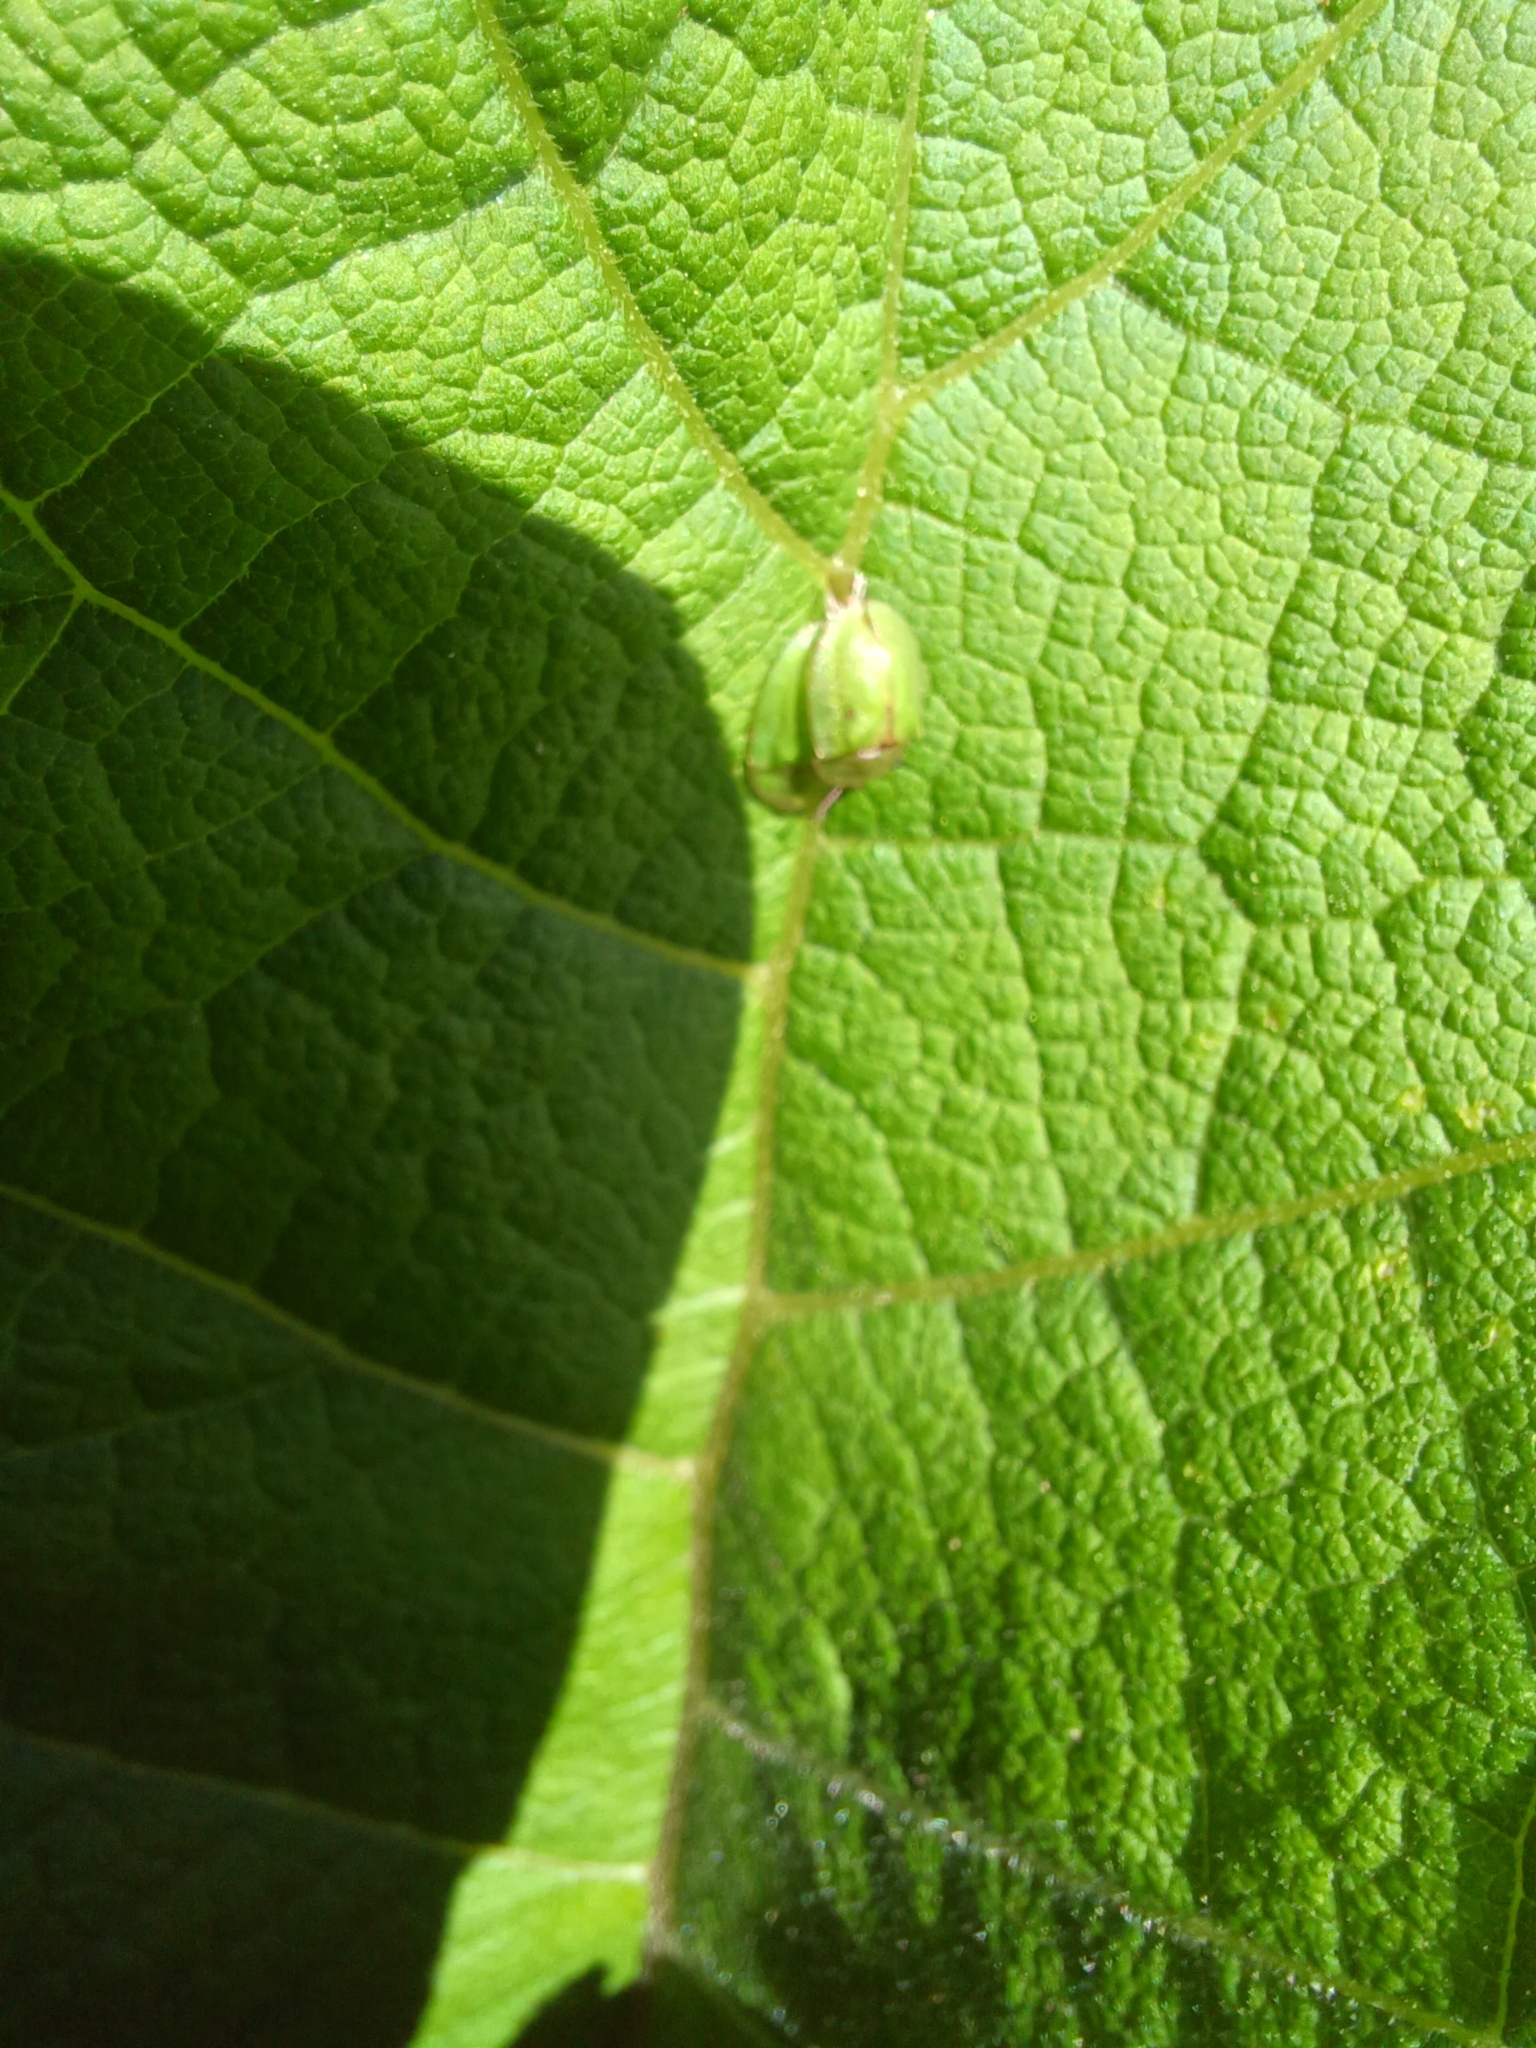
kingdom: Animalia
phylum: Arthropoda
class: Insecta
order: Coleoptera
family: Chrysomelidae
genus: Cassida
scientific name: Cassida rubiginosa
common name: Thistle tortoise beetle
